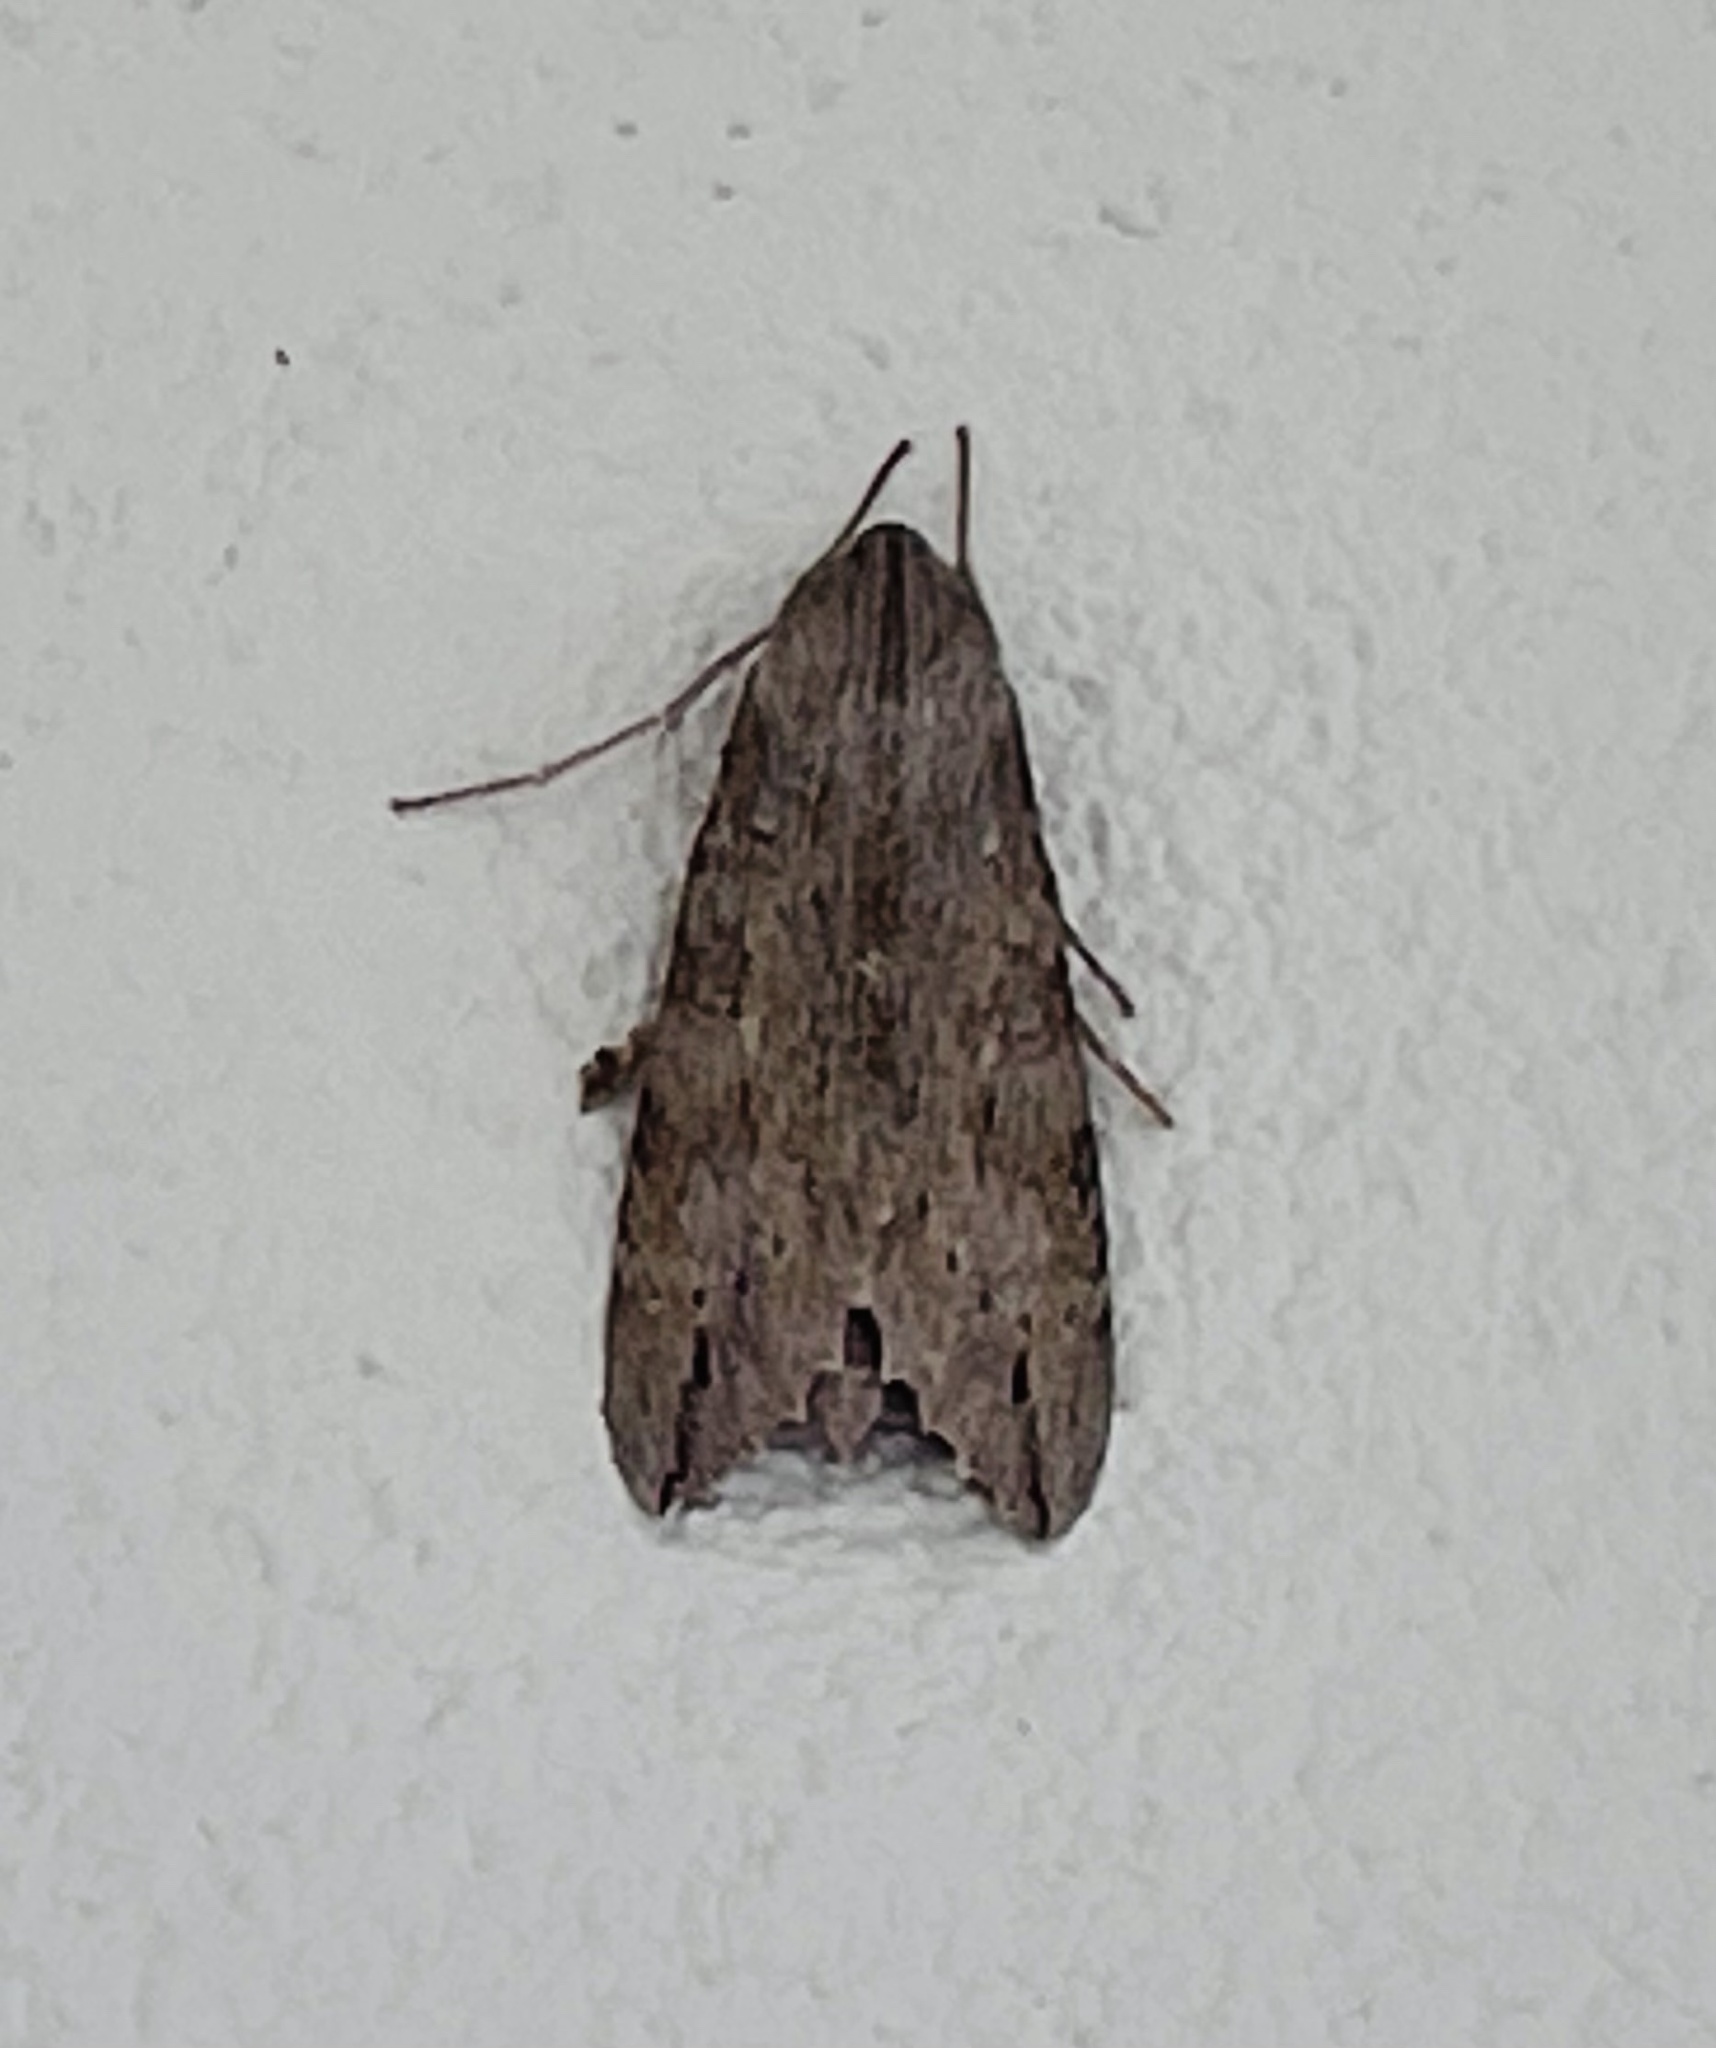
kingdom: Animalia
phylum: Arthropoda
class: Insecta
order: Lepidoptera
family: Sphingidae
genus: Erinnyis
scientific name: Erinnyis ello
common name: Ello sphinx
